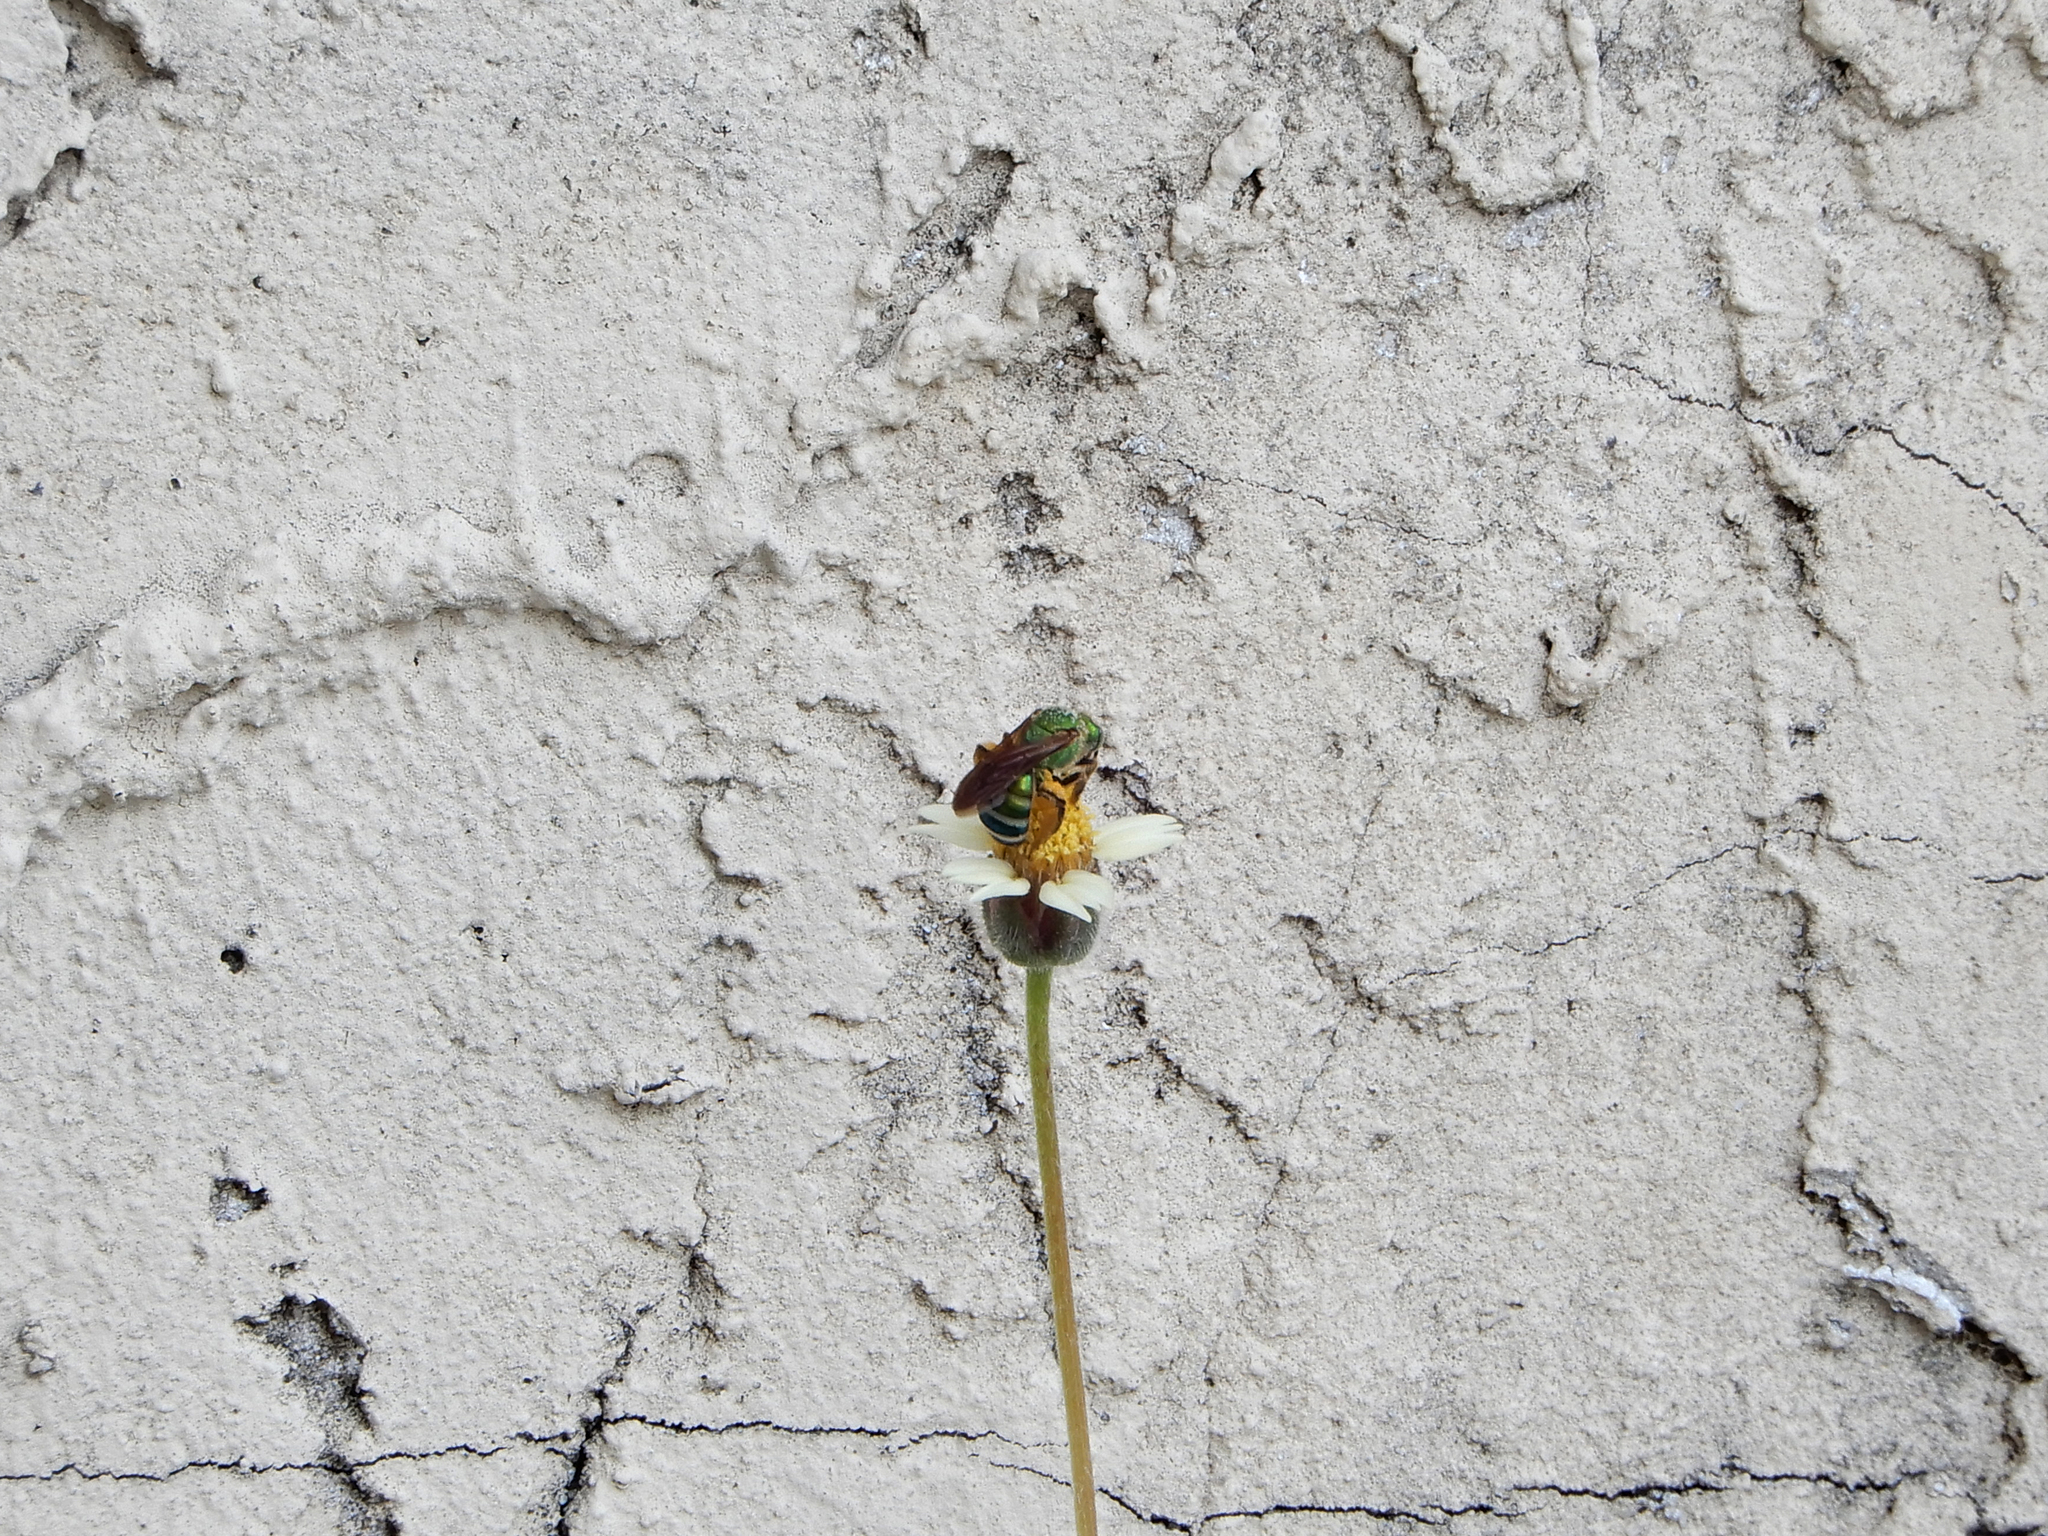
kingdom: Animalia
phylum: Arthropoda
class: Insecta
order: Hymenoptera
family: Halictidae
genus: Agapostemon
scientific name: Agapostemon splendens
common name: Brown-winged striped sweat bee
